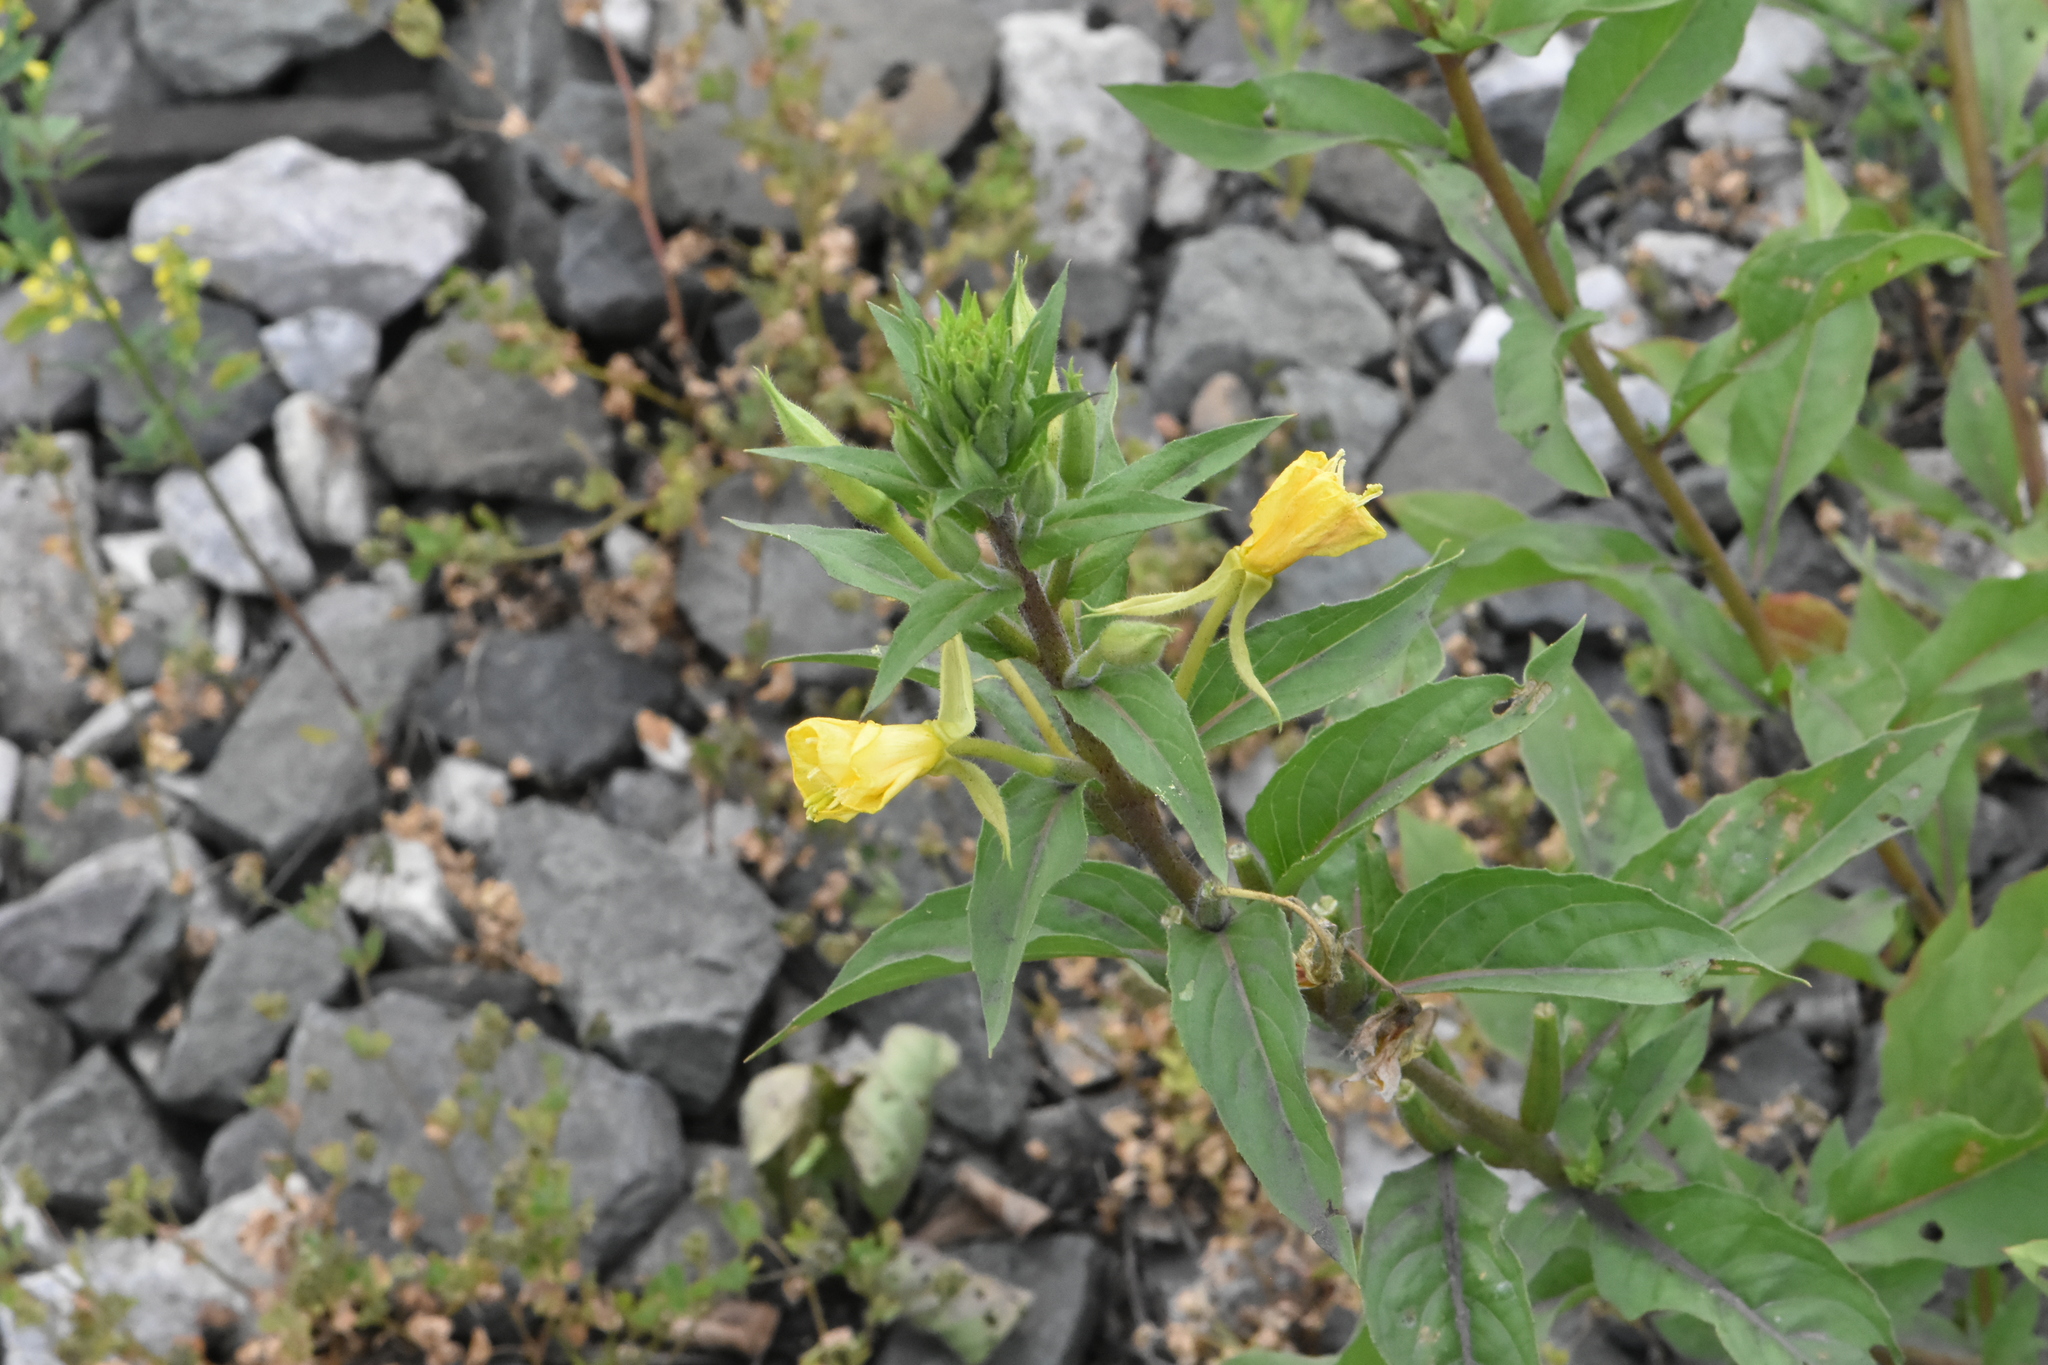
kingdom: Plantae
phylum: Tracheophyta
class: Magnoliopsida
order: Myrtales
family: Onagraceae
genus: Oenothera
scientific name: Oenothera rubricaulis
